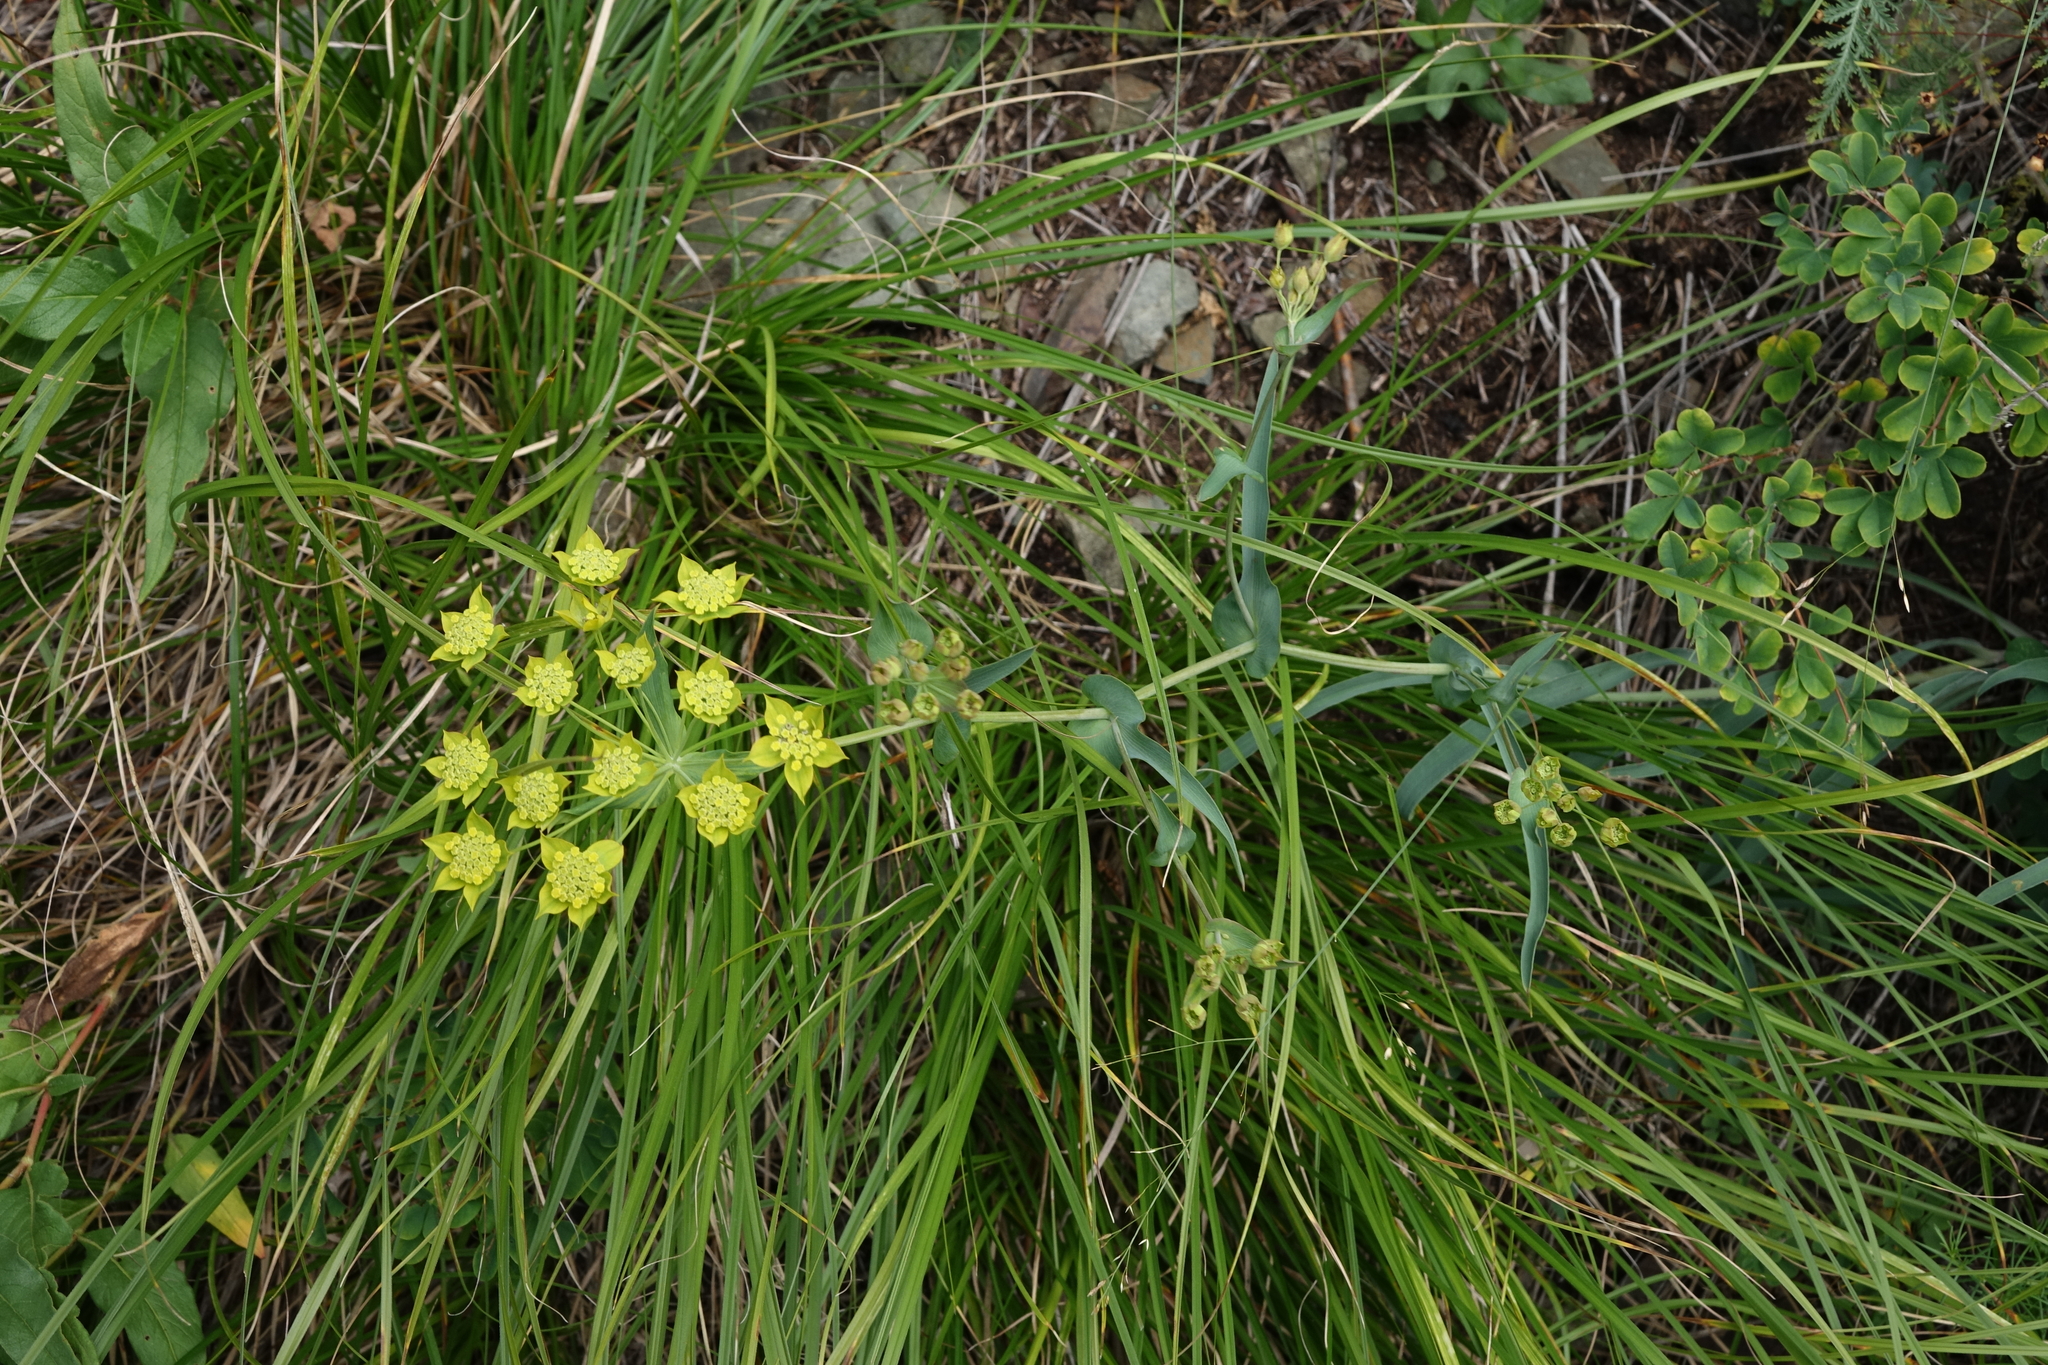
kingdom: Plantae
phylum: Tracheophyta
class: Magnoliopsida
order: Apiales
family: Apiaceae
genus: Bupleurum
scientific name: Bupleurum multinerve
